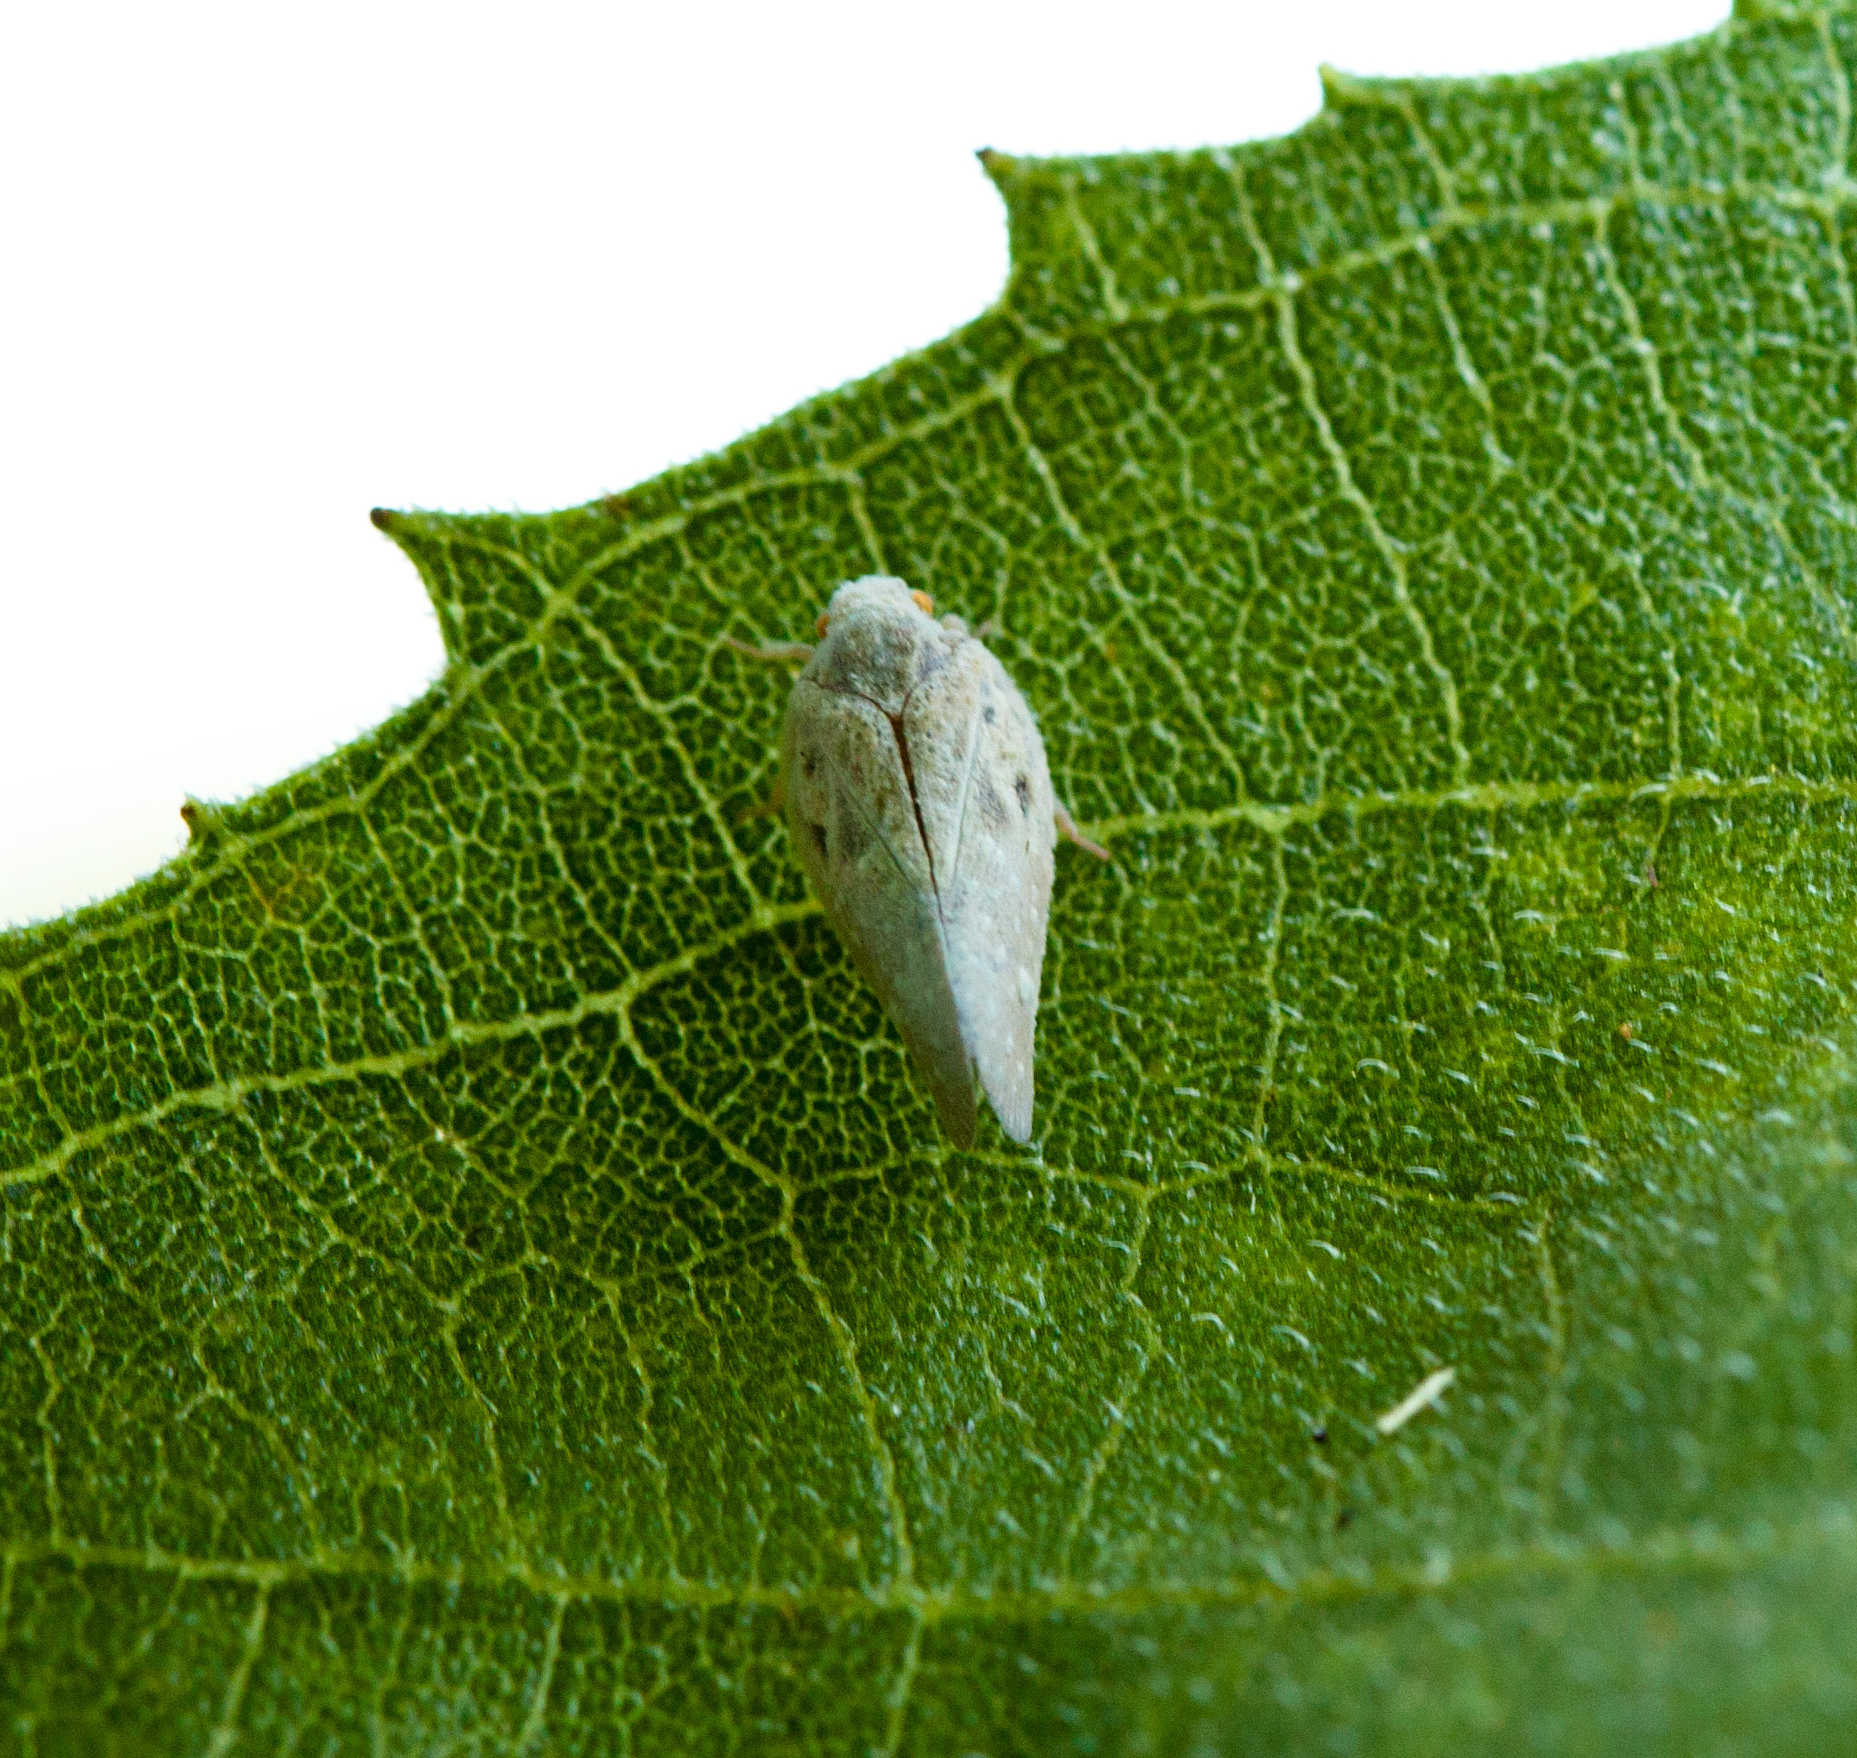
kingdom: Animalia
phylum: Arthropoda
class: Insecta
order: Hemiptera
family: Flatidae
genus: Metcalfa
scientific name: Metcalfa pruinosa
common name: Citrus flatid planthopper
